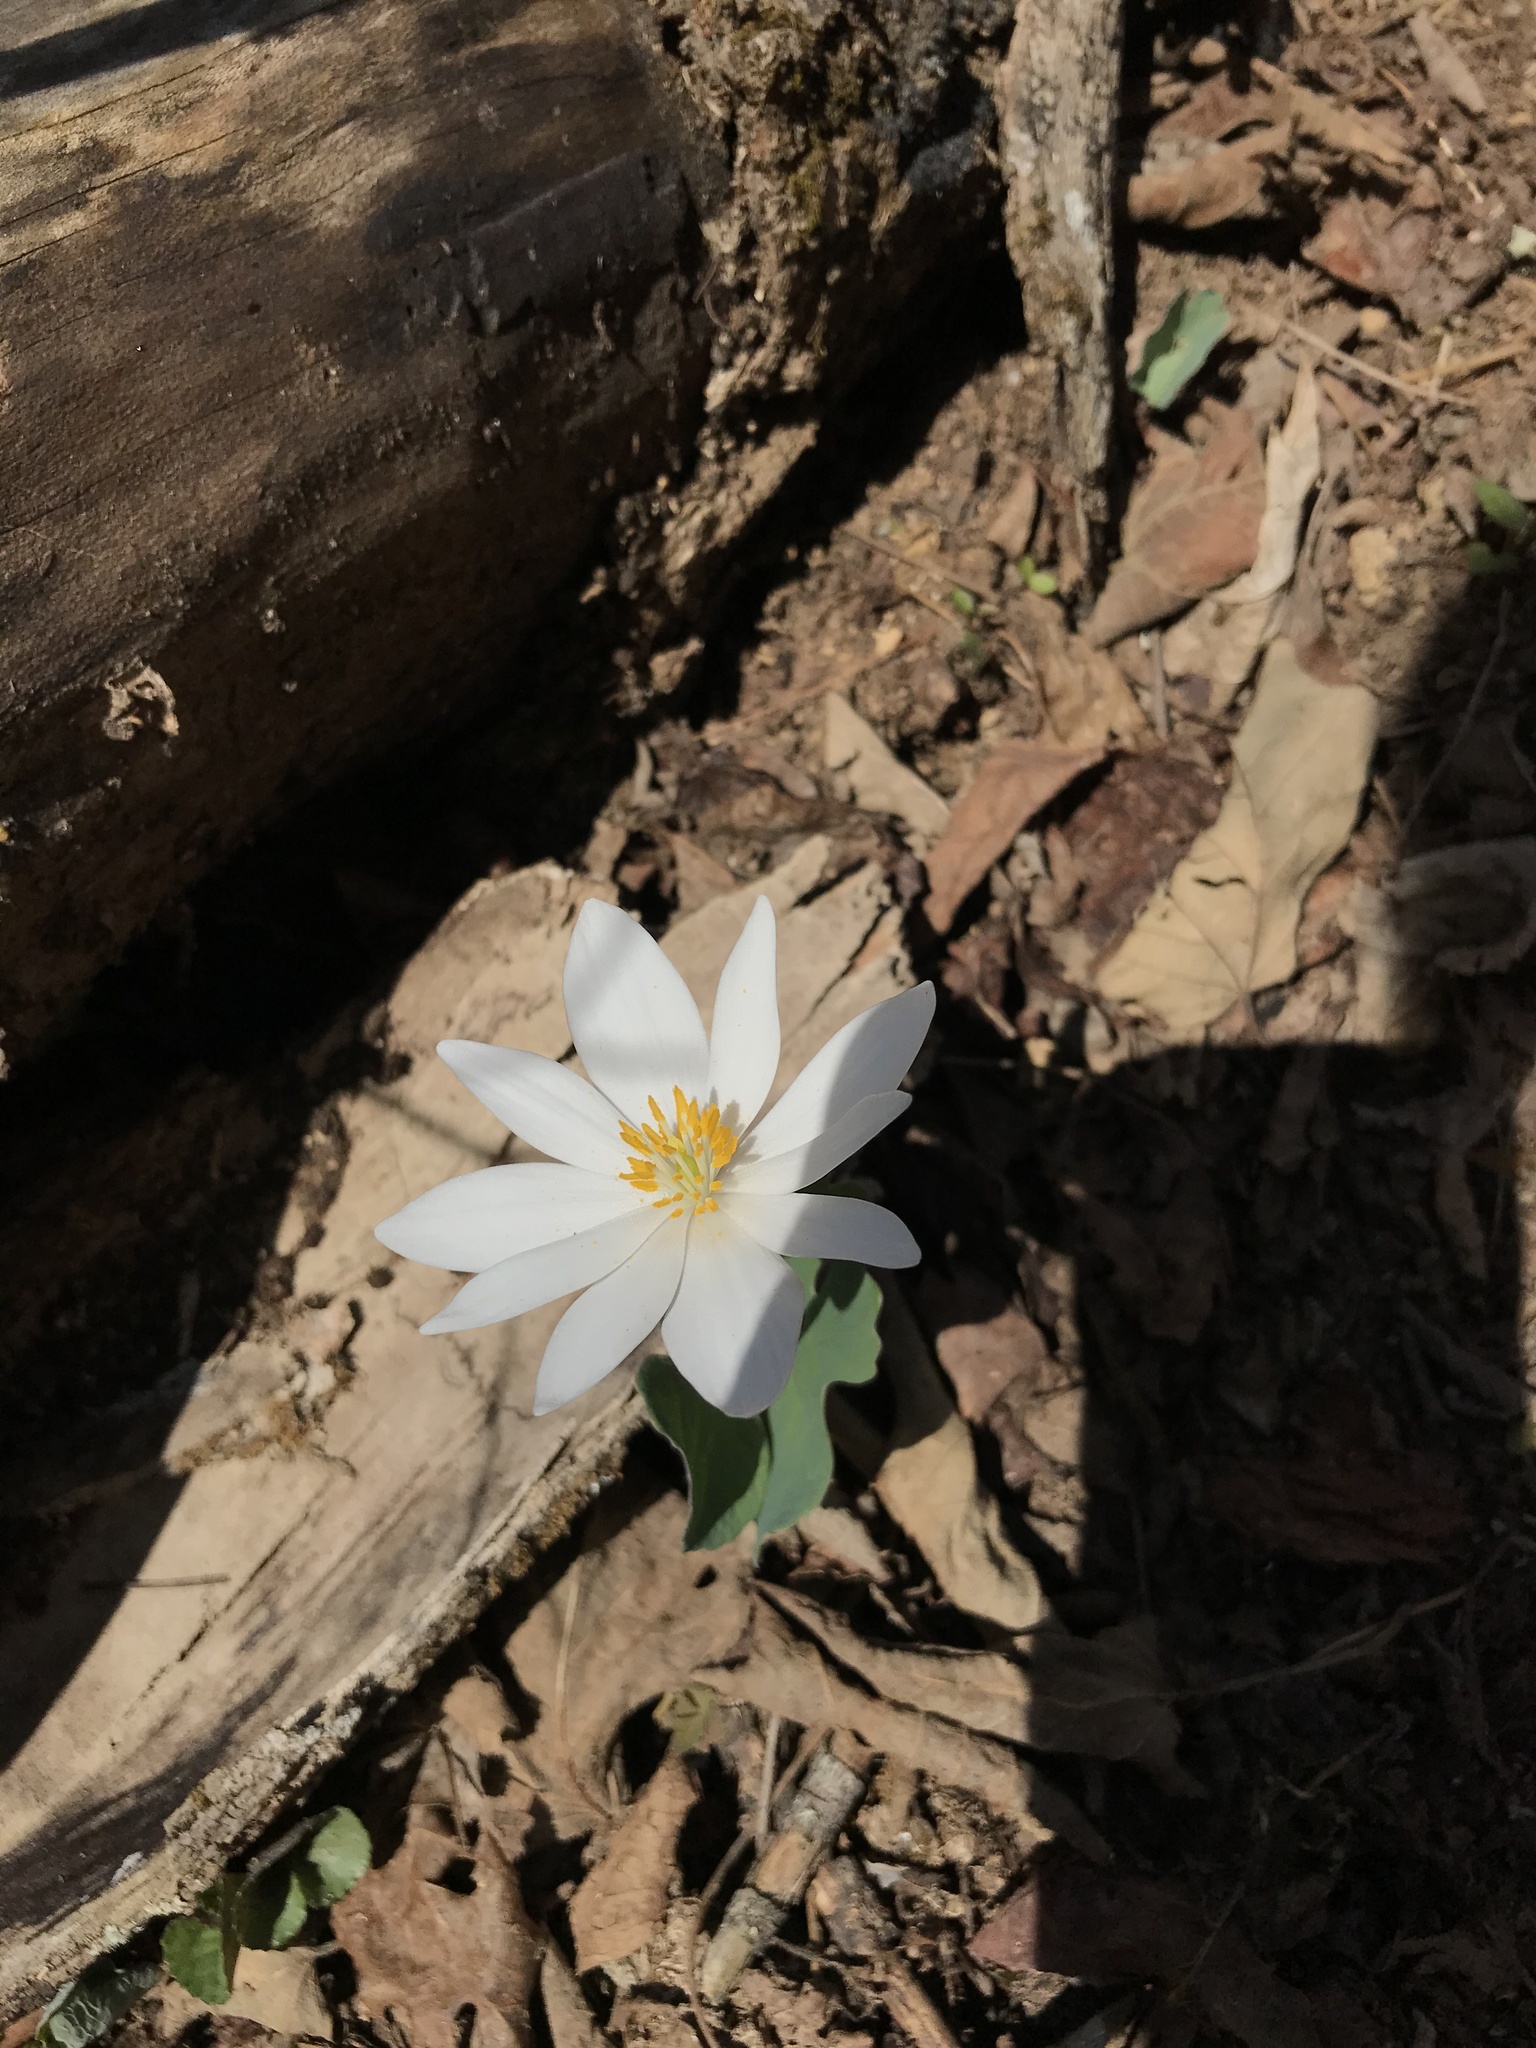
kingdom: Plantae
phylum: Tracheophyta
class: Magnoliopsida
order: Ranunculales
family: Papaveraceae
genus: Sanguinaria
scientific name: Sanguinaria canadensis
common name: Bloodroot
